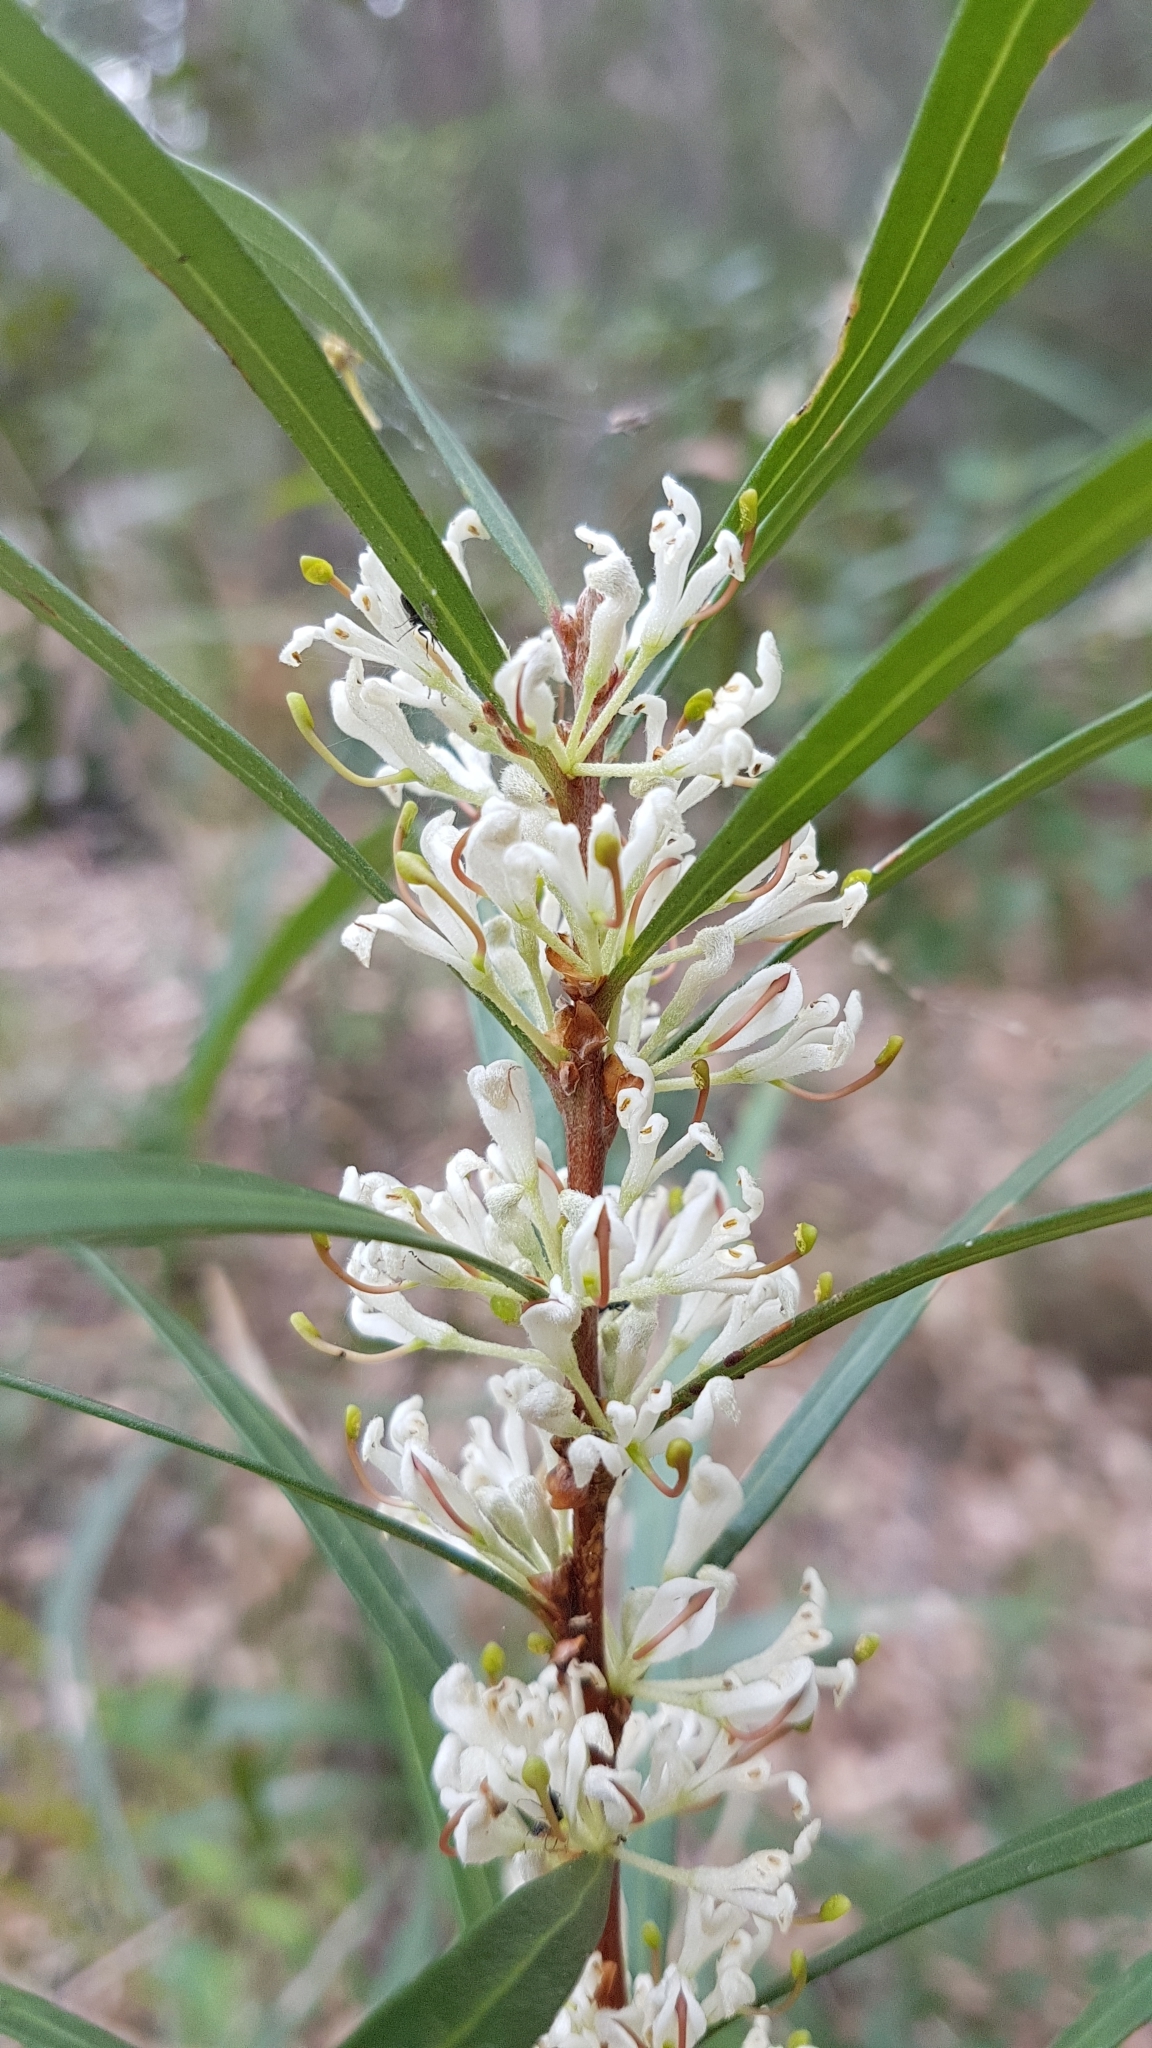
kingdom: Plantae
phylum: Tracheophyta
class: Magnoliopsida
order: Proteales
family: Proteaceae
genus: Hakea
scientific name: Hakea eriantha
